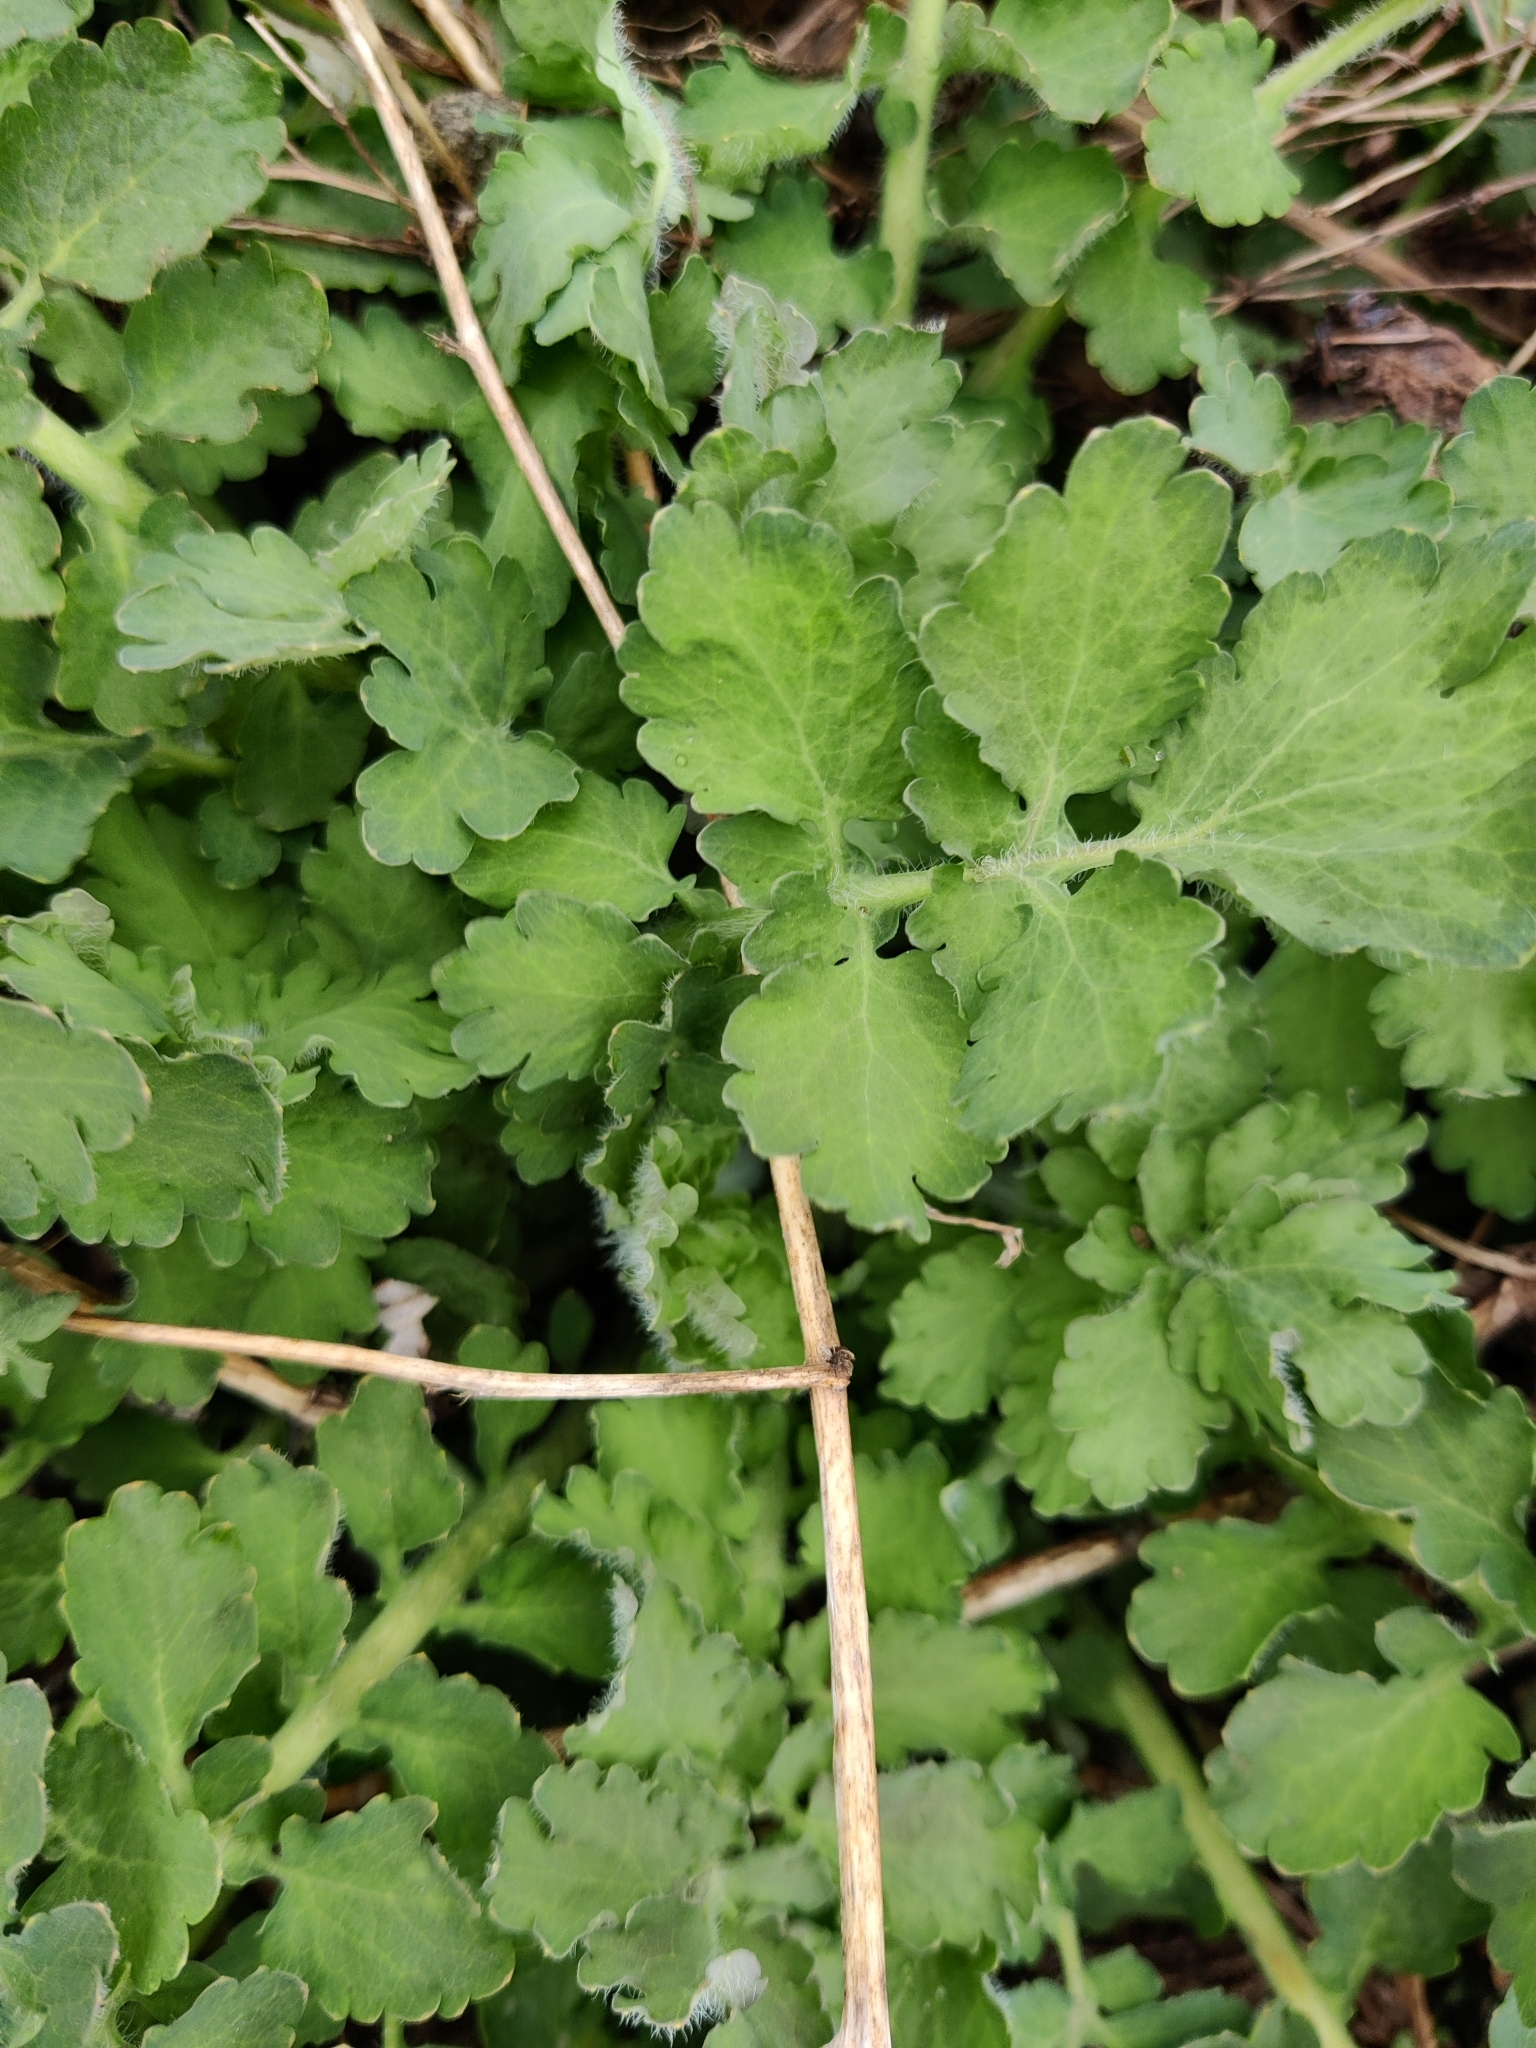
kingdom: Plantae
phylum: Tracheophyta
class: Magnoliopsida
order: Ranunculales
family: Papaveraceae
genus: Chelidonium
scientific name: Chelidonium majus
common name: Greater celandine
